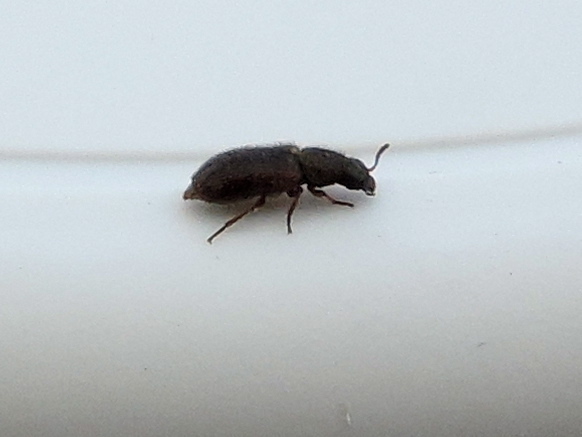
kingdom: Animalia
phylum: Arthropoda
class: Insecta
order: Coleoptera
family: Dasytidae
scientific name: Dasytidae
